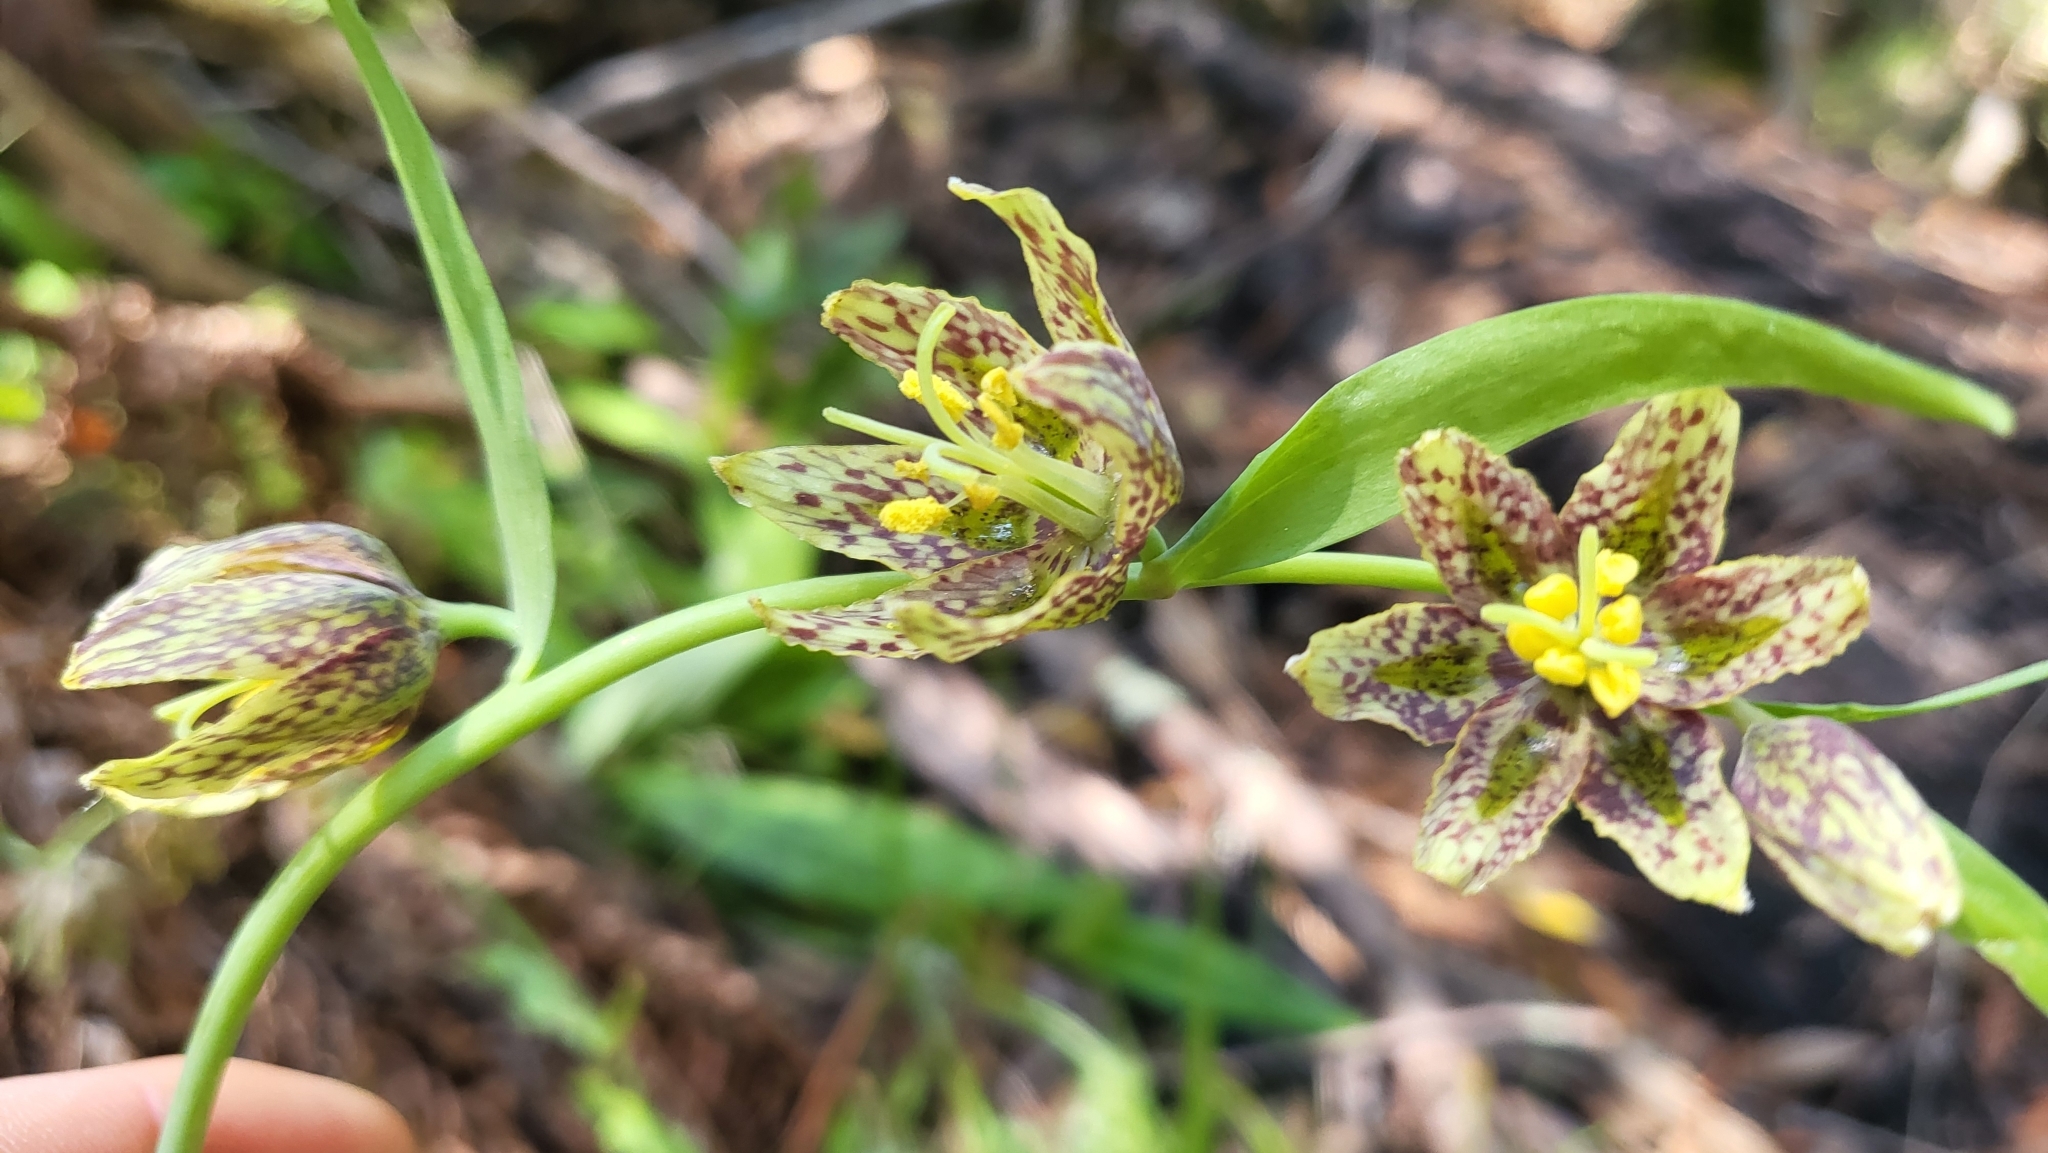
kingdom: Plantae
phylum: Tracheophyta
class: Liliopsida
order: Liliales
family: Liliaceae
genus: Fritillaria
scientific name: Fritillaria affinis
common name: Ojai fritillary
